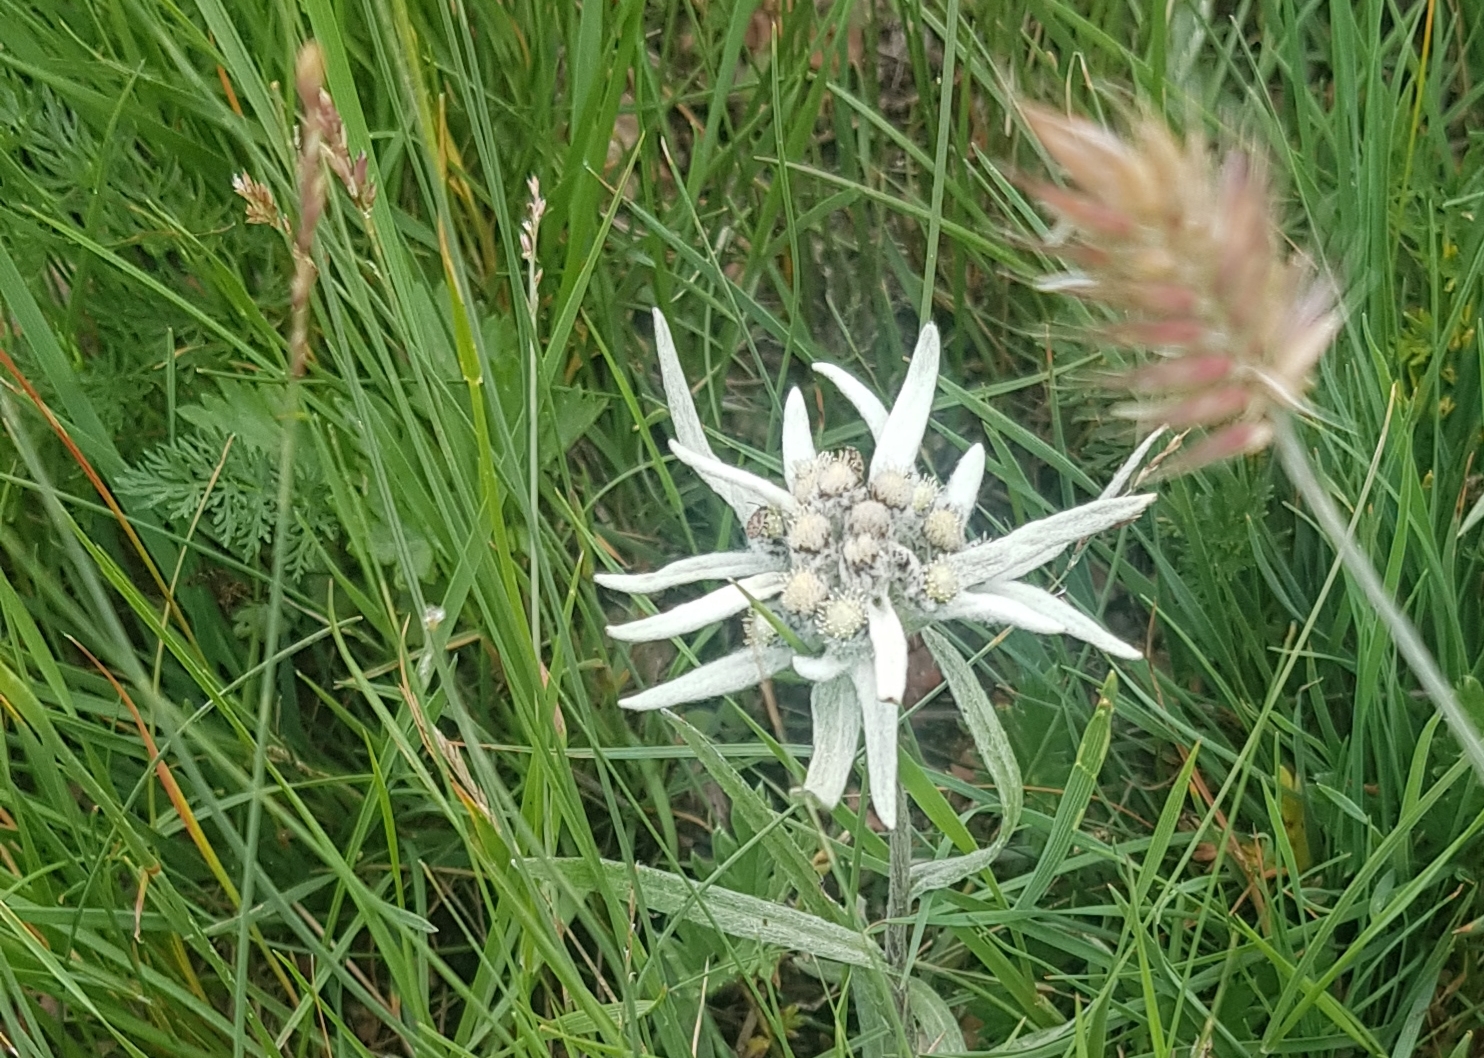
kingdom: Plantae
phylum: Tracheophyta
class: Magnoliopsida
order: Asterales
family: Asteraceae
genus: Leontopodium
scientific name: Leontopodium leontopodioides
